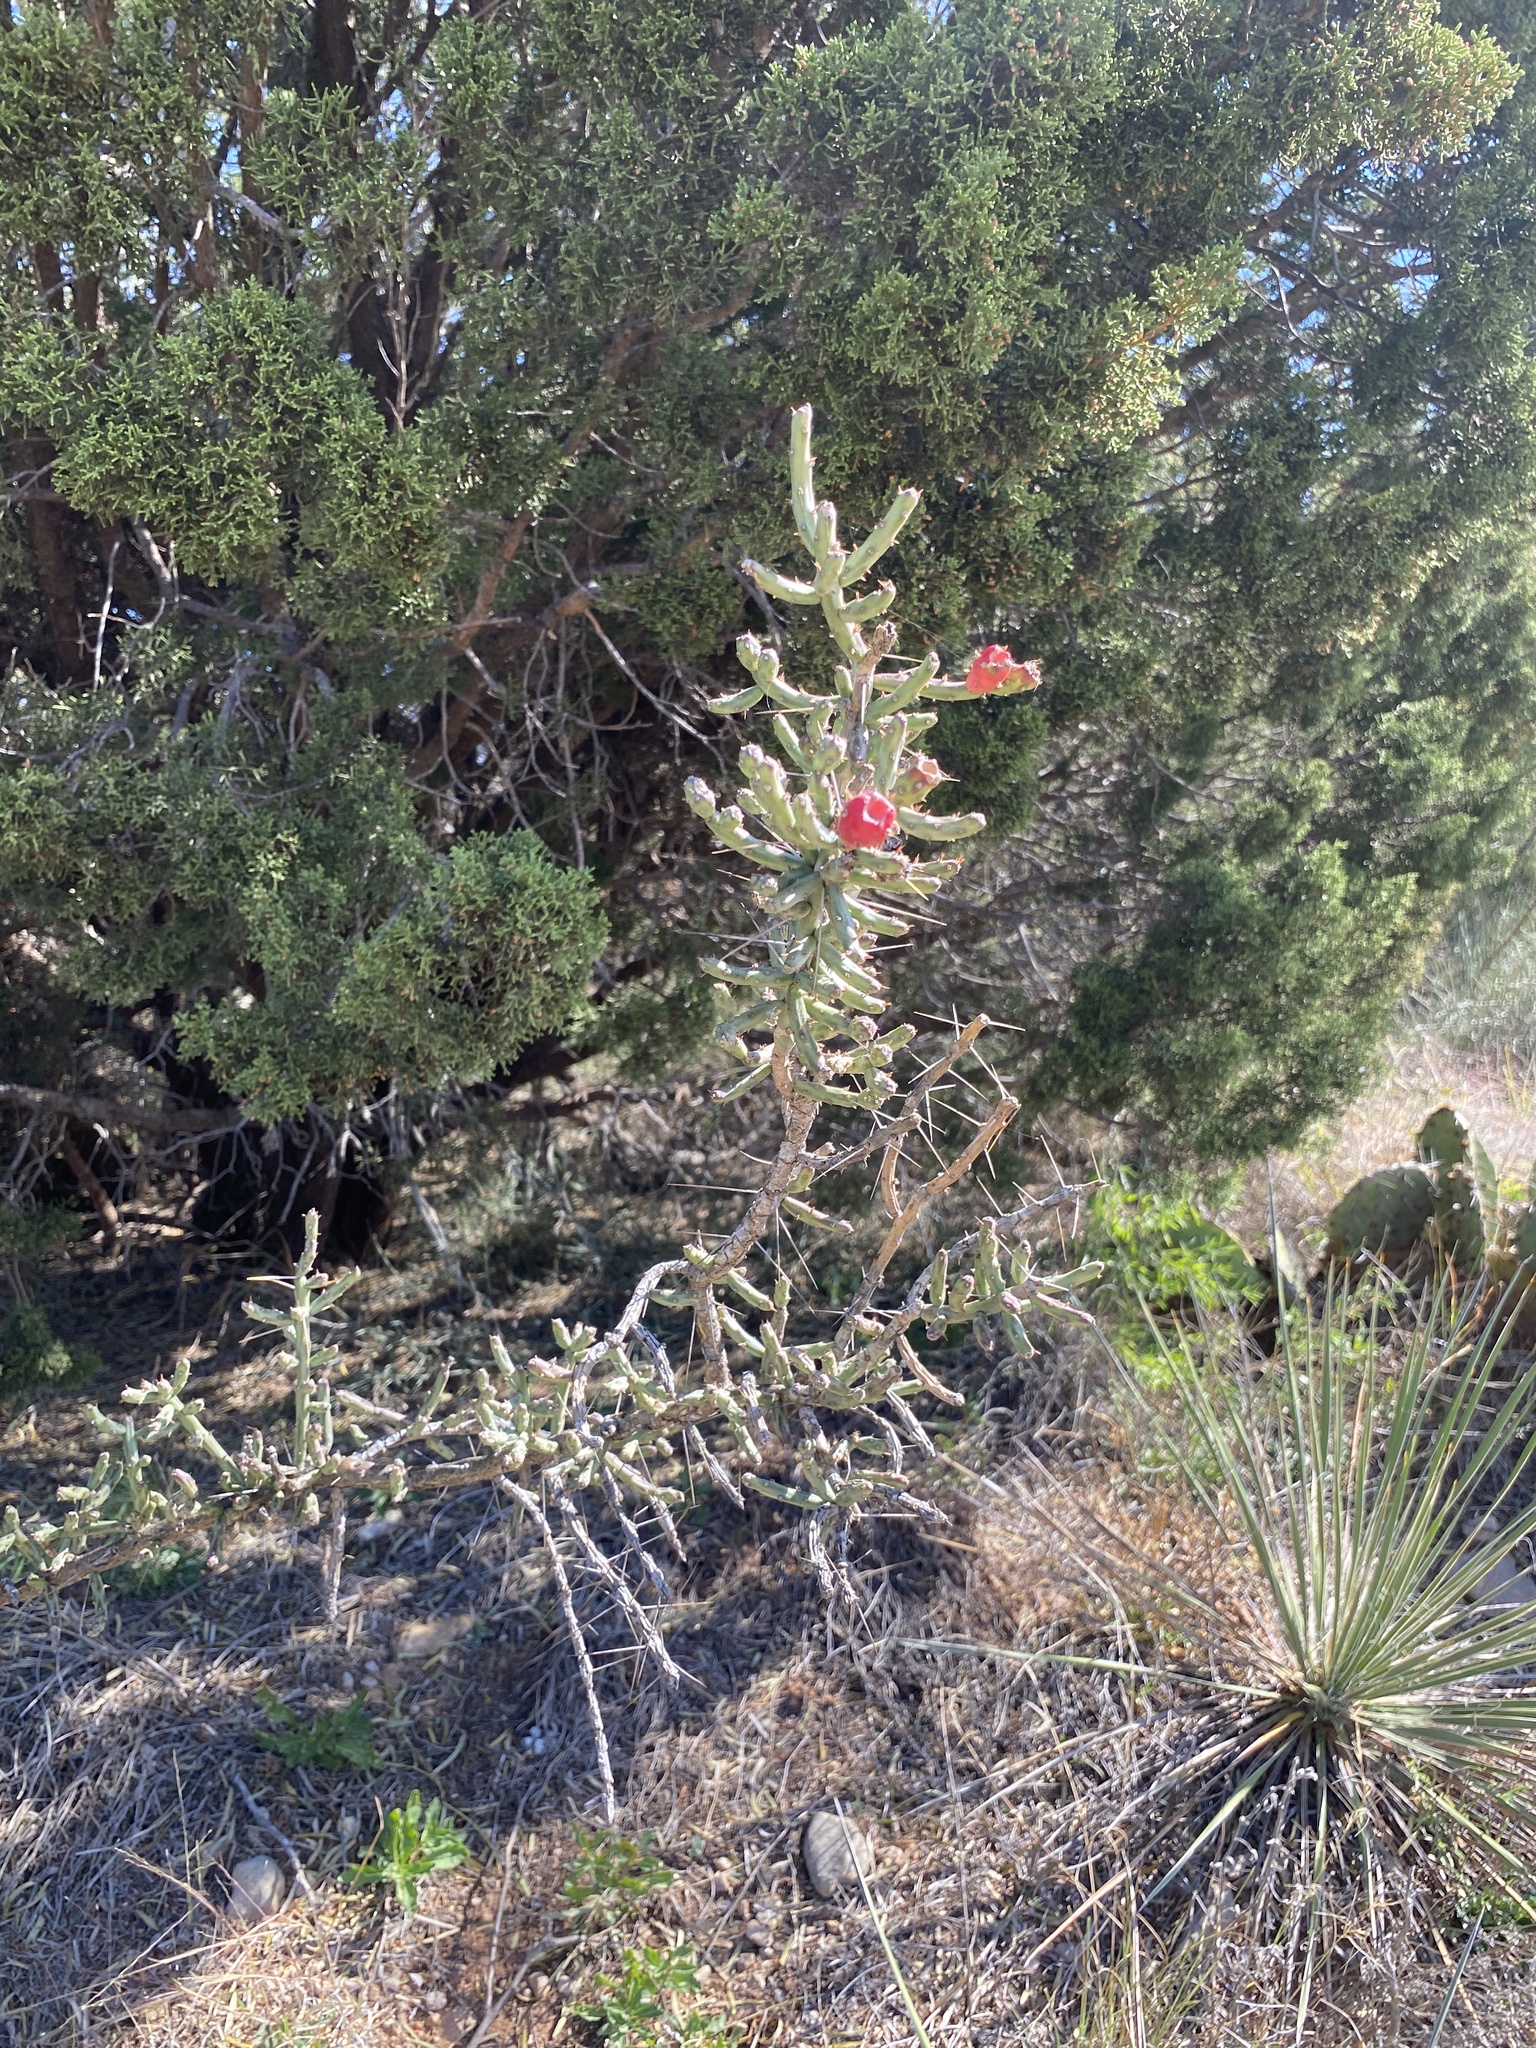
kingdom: Plantae
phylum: Tracheophyta
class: Magnoliopsida
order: Caryophyllales
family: Cactaceae
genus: Cylindropuntia
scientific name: Cylindropuntia leptocaulis
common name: Christmas cactus
